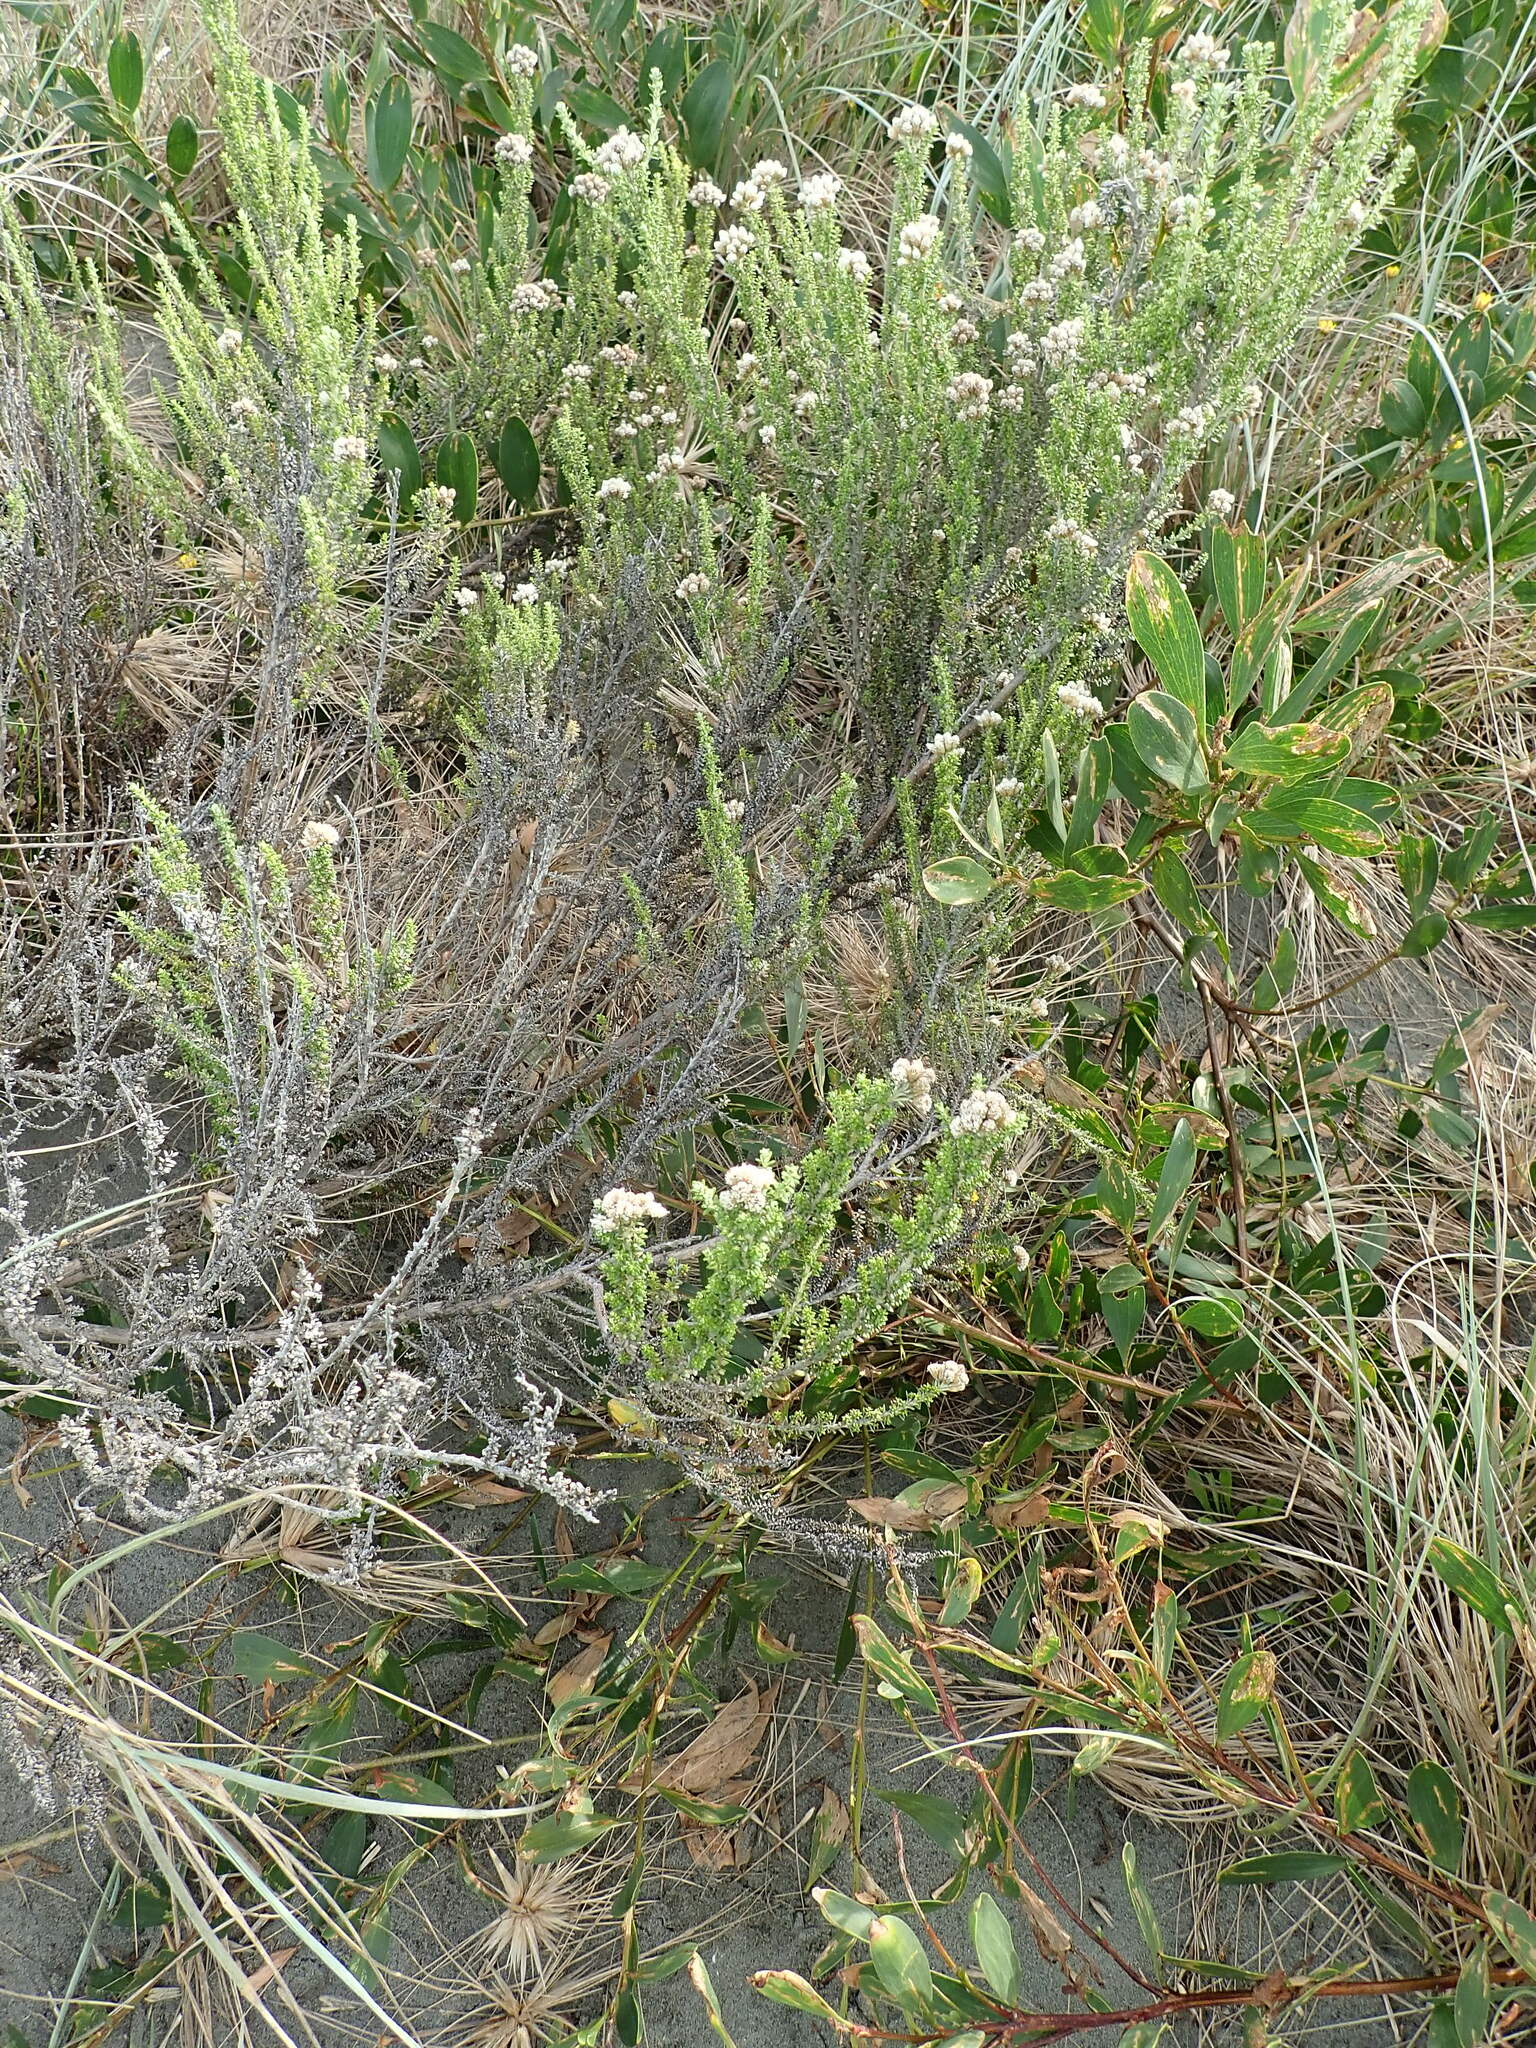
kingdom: Plantae
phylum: Tracheophyta
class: Magnoliopsida
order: Asterales
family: Asteraceae
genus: Ozothamnus
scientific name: Ozothamnus leptophyllus
